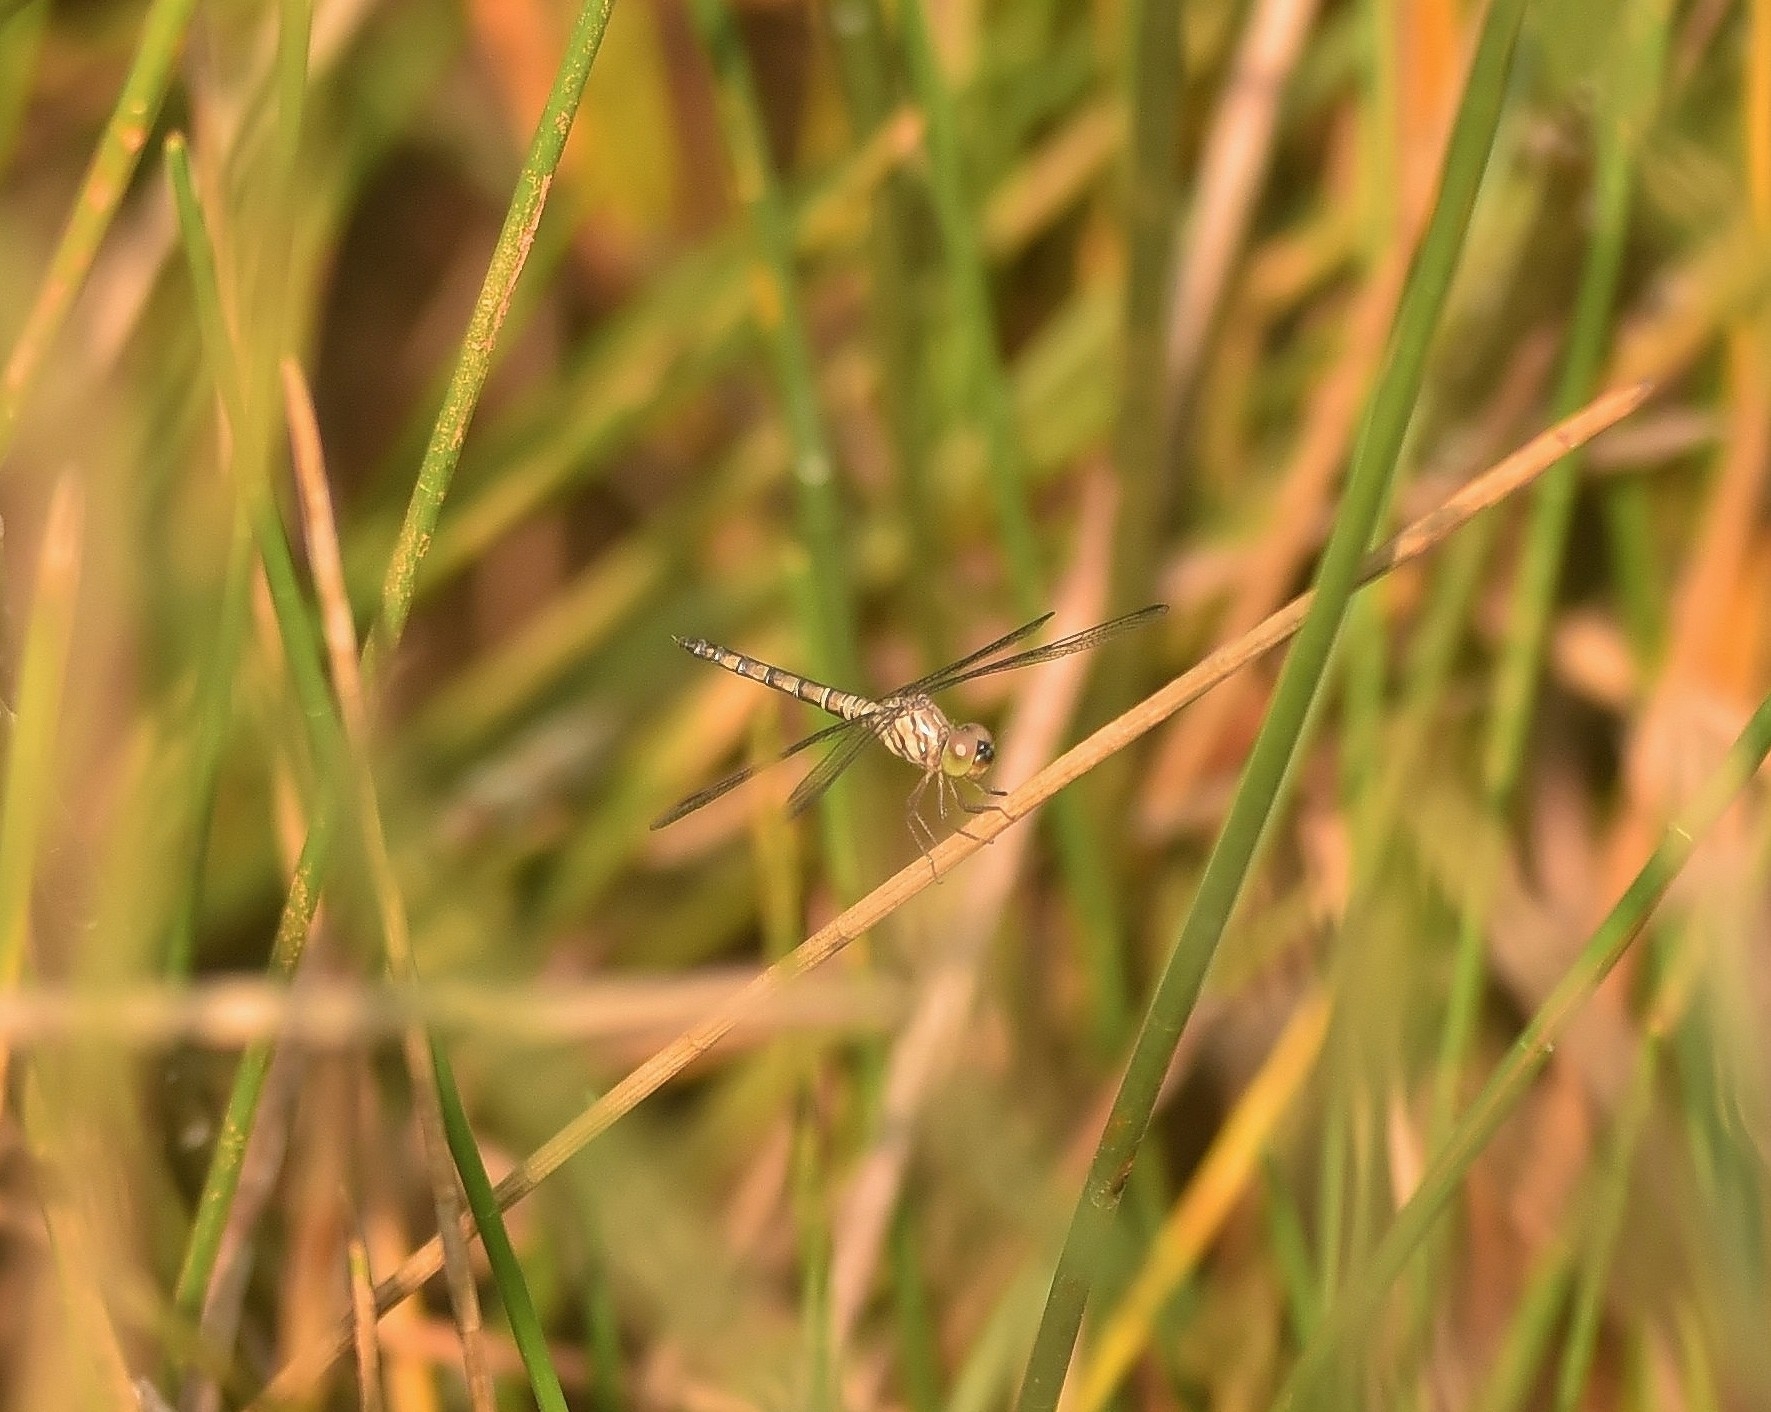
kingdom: Animalia
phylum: Arthropoda
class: Insecta
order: Odonata
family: Libellulidae
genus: Brachydiplax
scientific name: Brachydiplax chalybea
